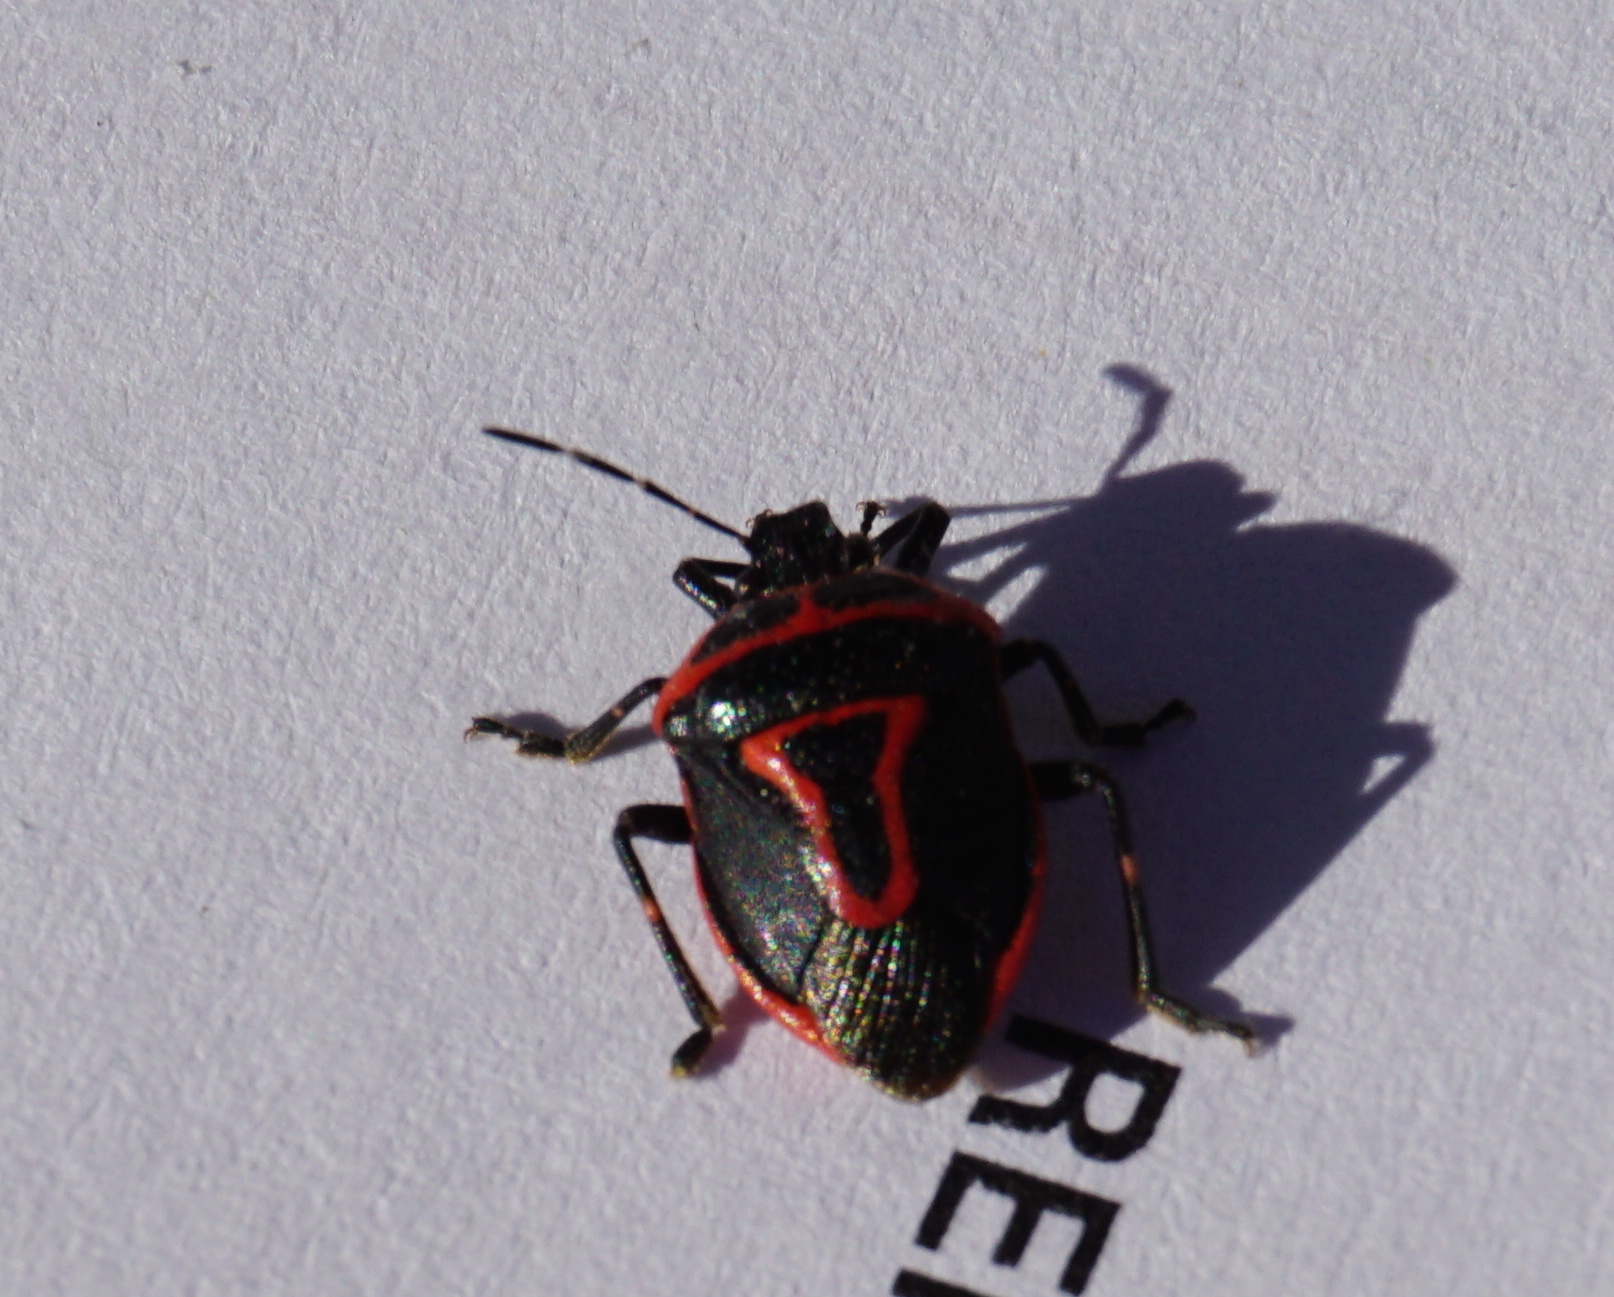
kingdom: Animalia
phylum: Arthropoda
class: Insecta
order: Hemiptera
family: Pentatomidae
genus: Perillus
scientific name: Perillus bioculatus
